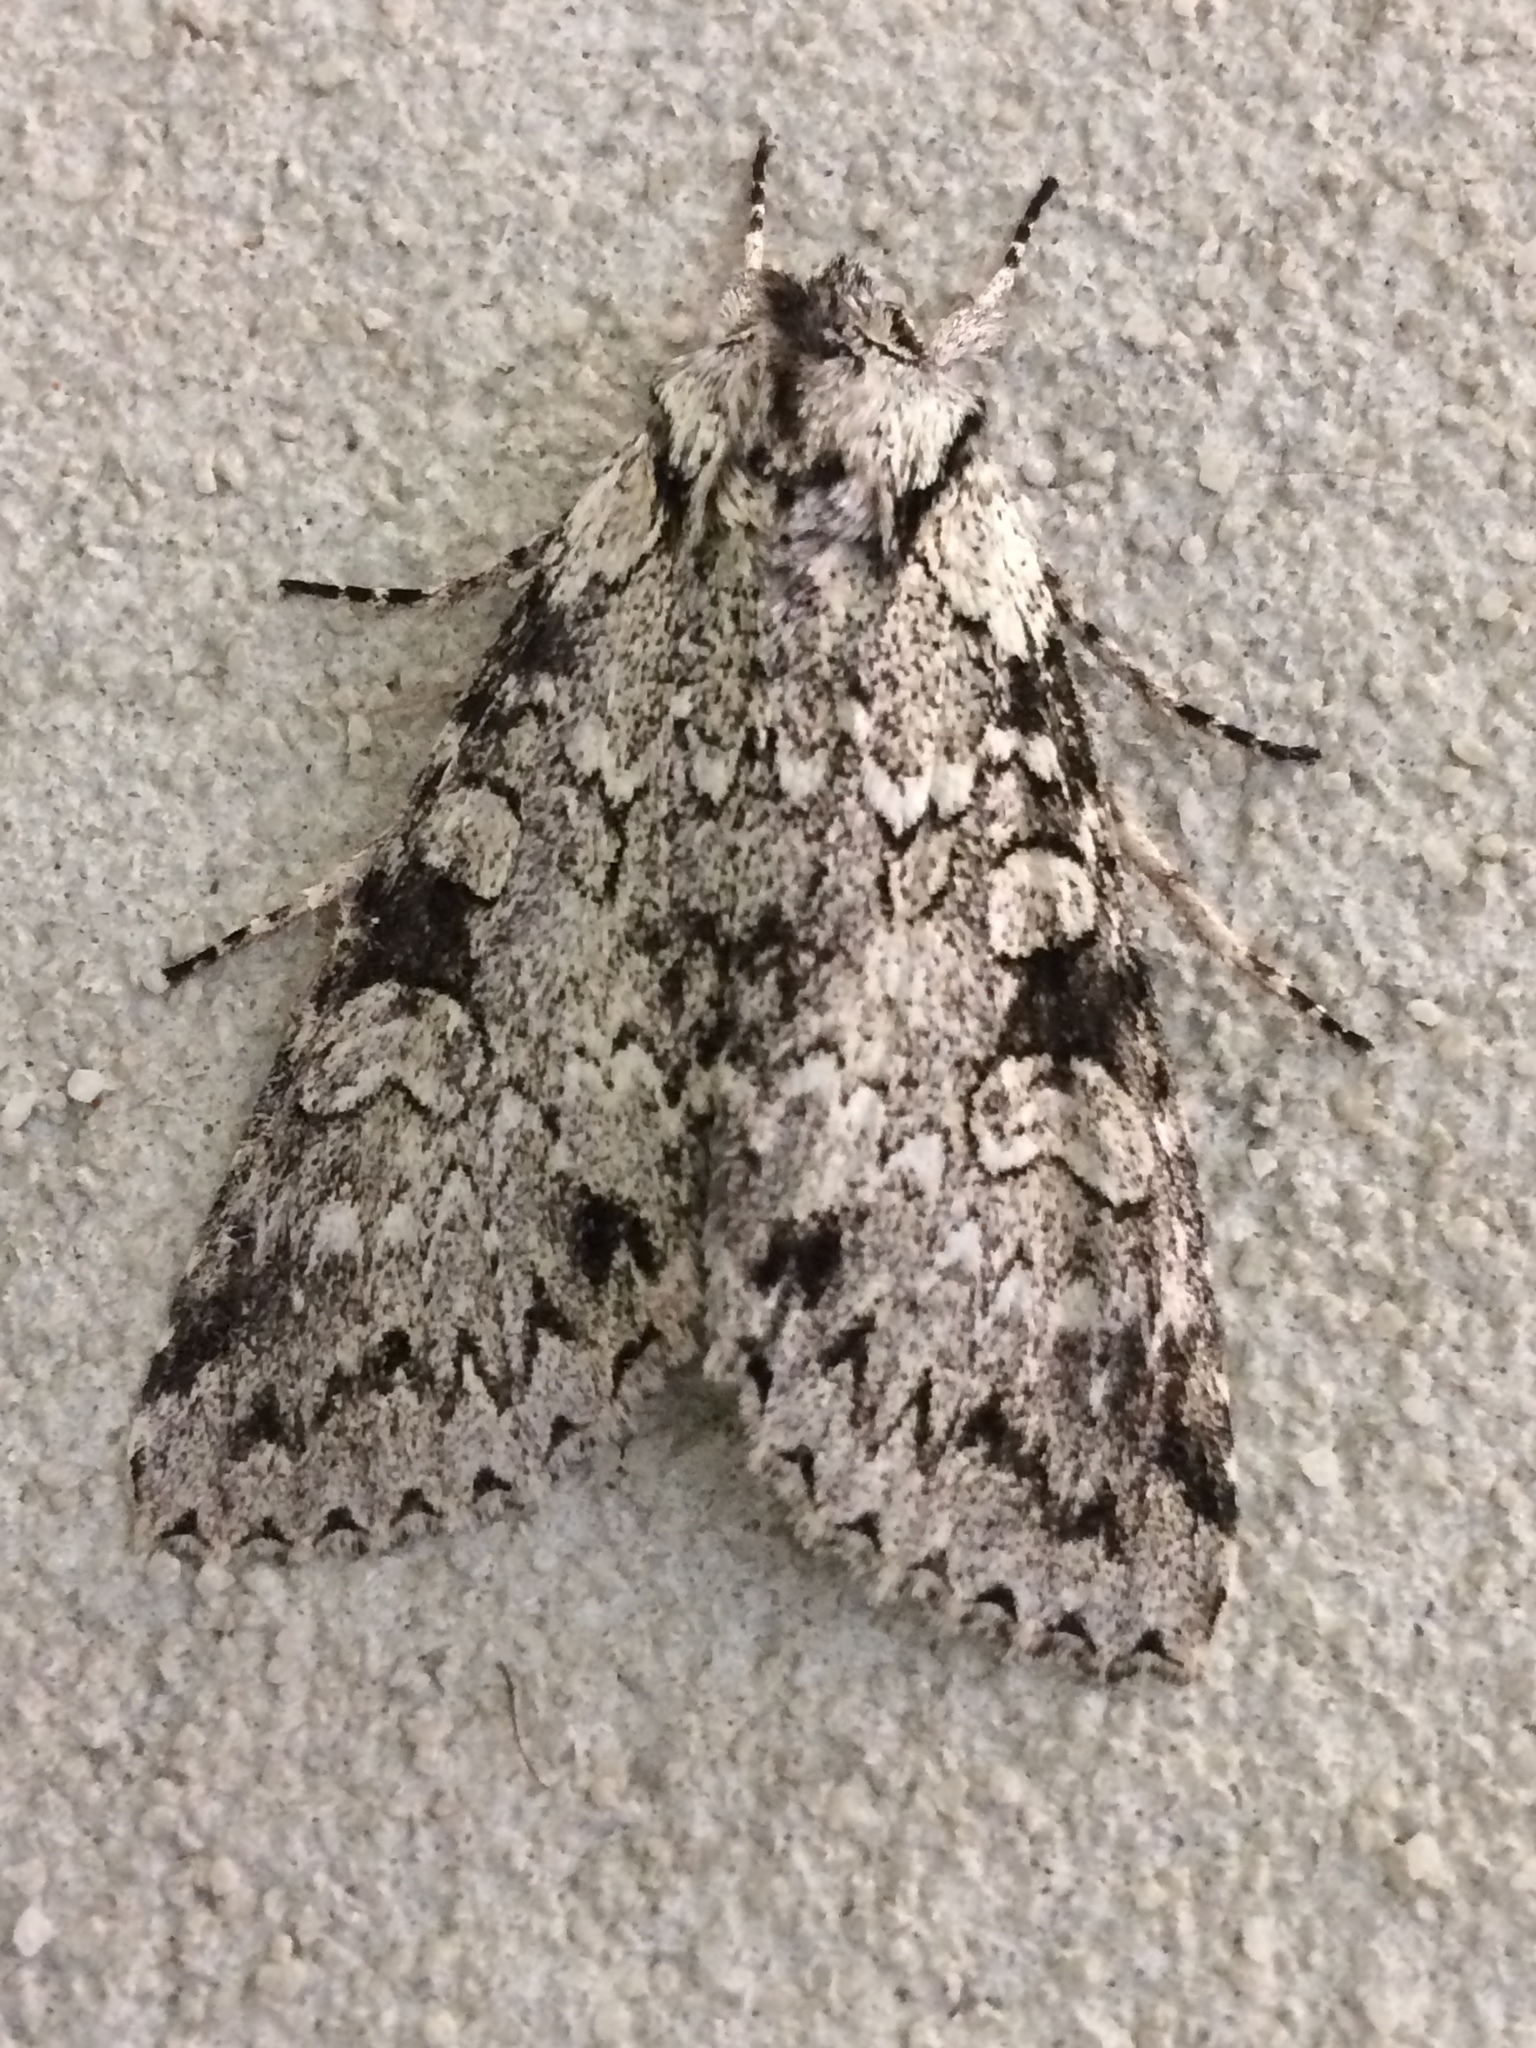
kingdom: Animalia
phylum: Arthropoda
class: Insecta
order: Lepidoptera
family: Noctuidae
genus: Polia
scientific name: Polia nimbosa
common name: Stormy arches
